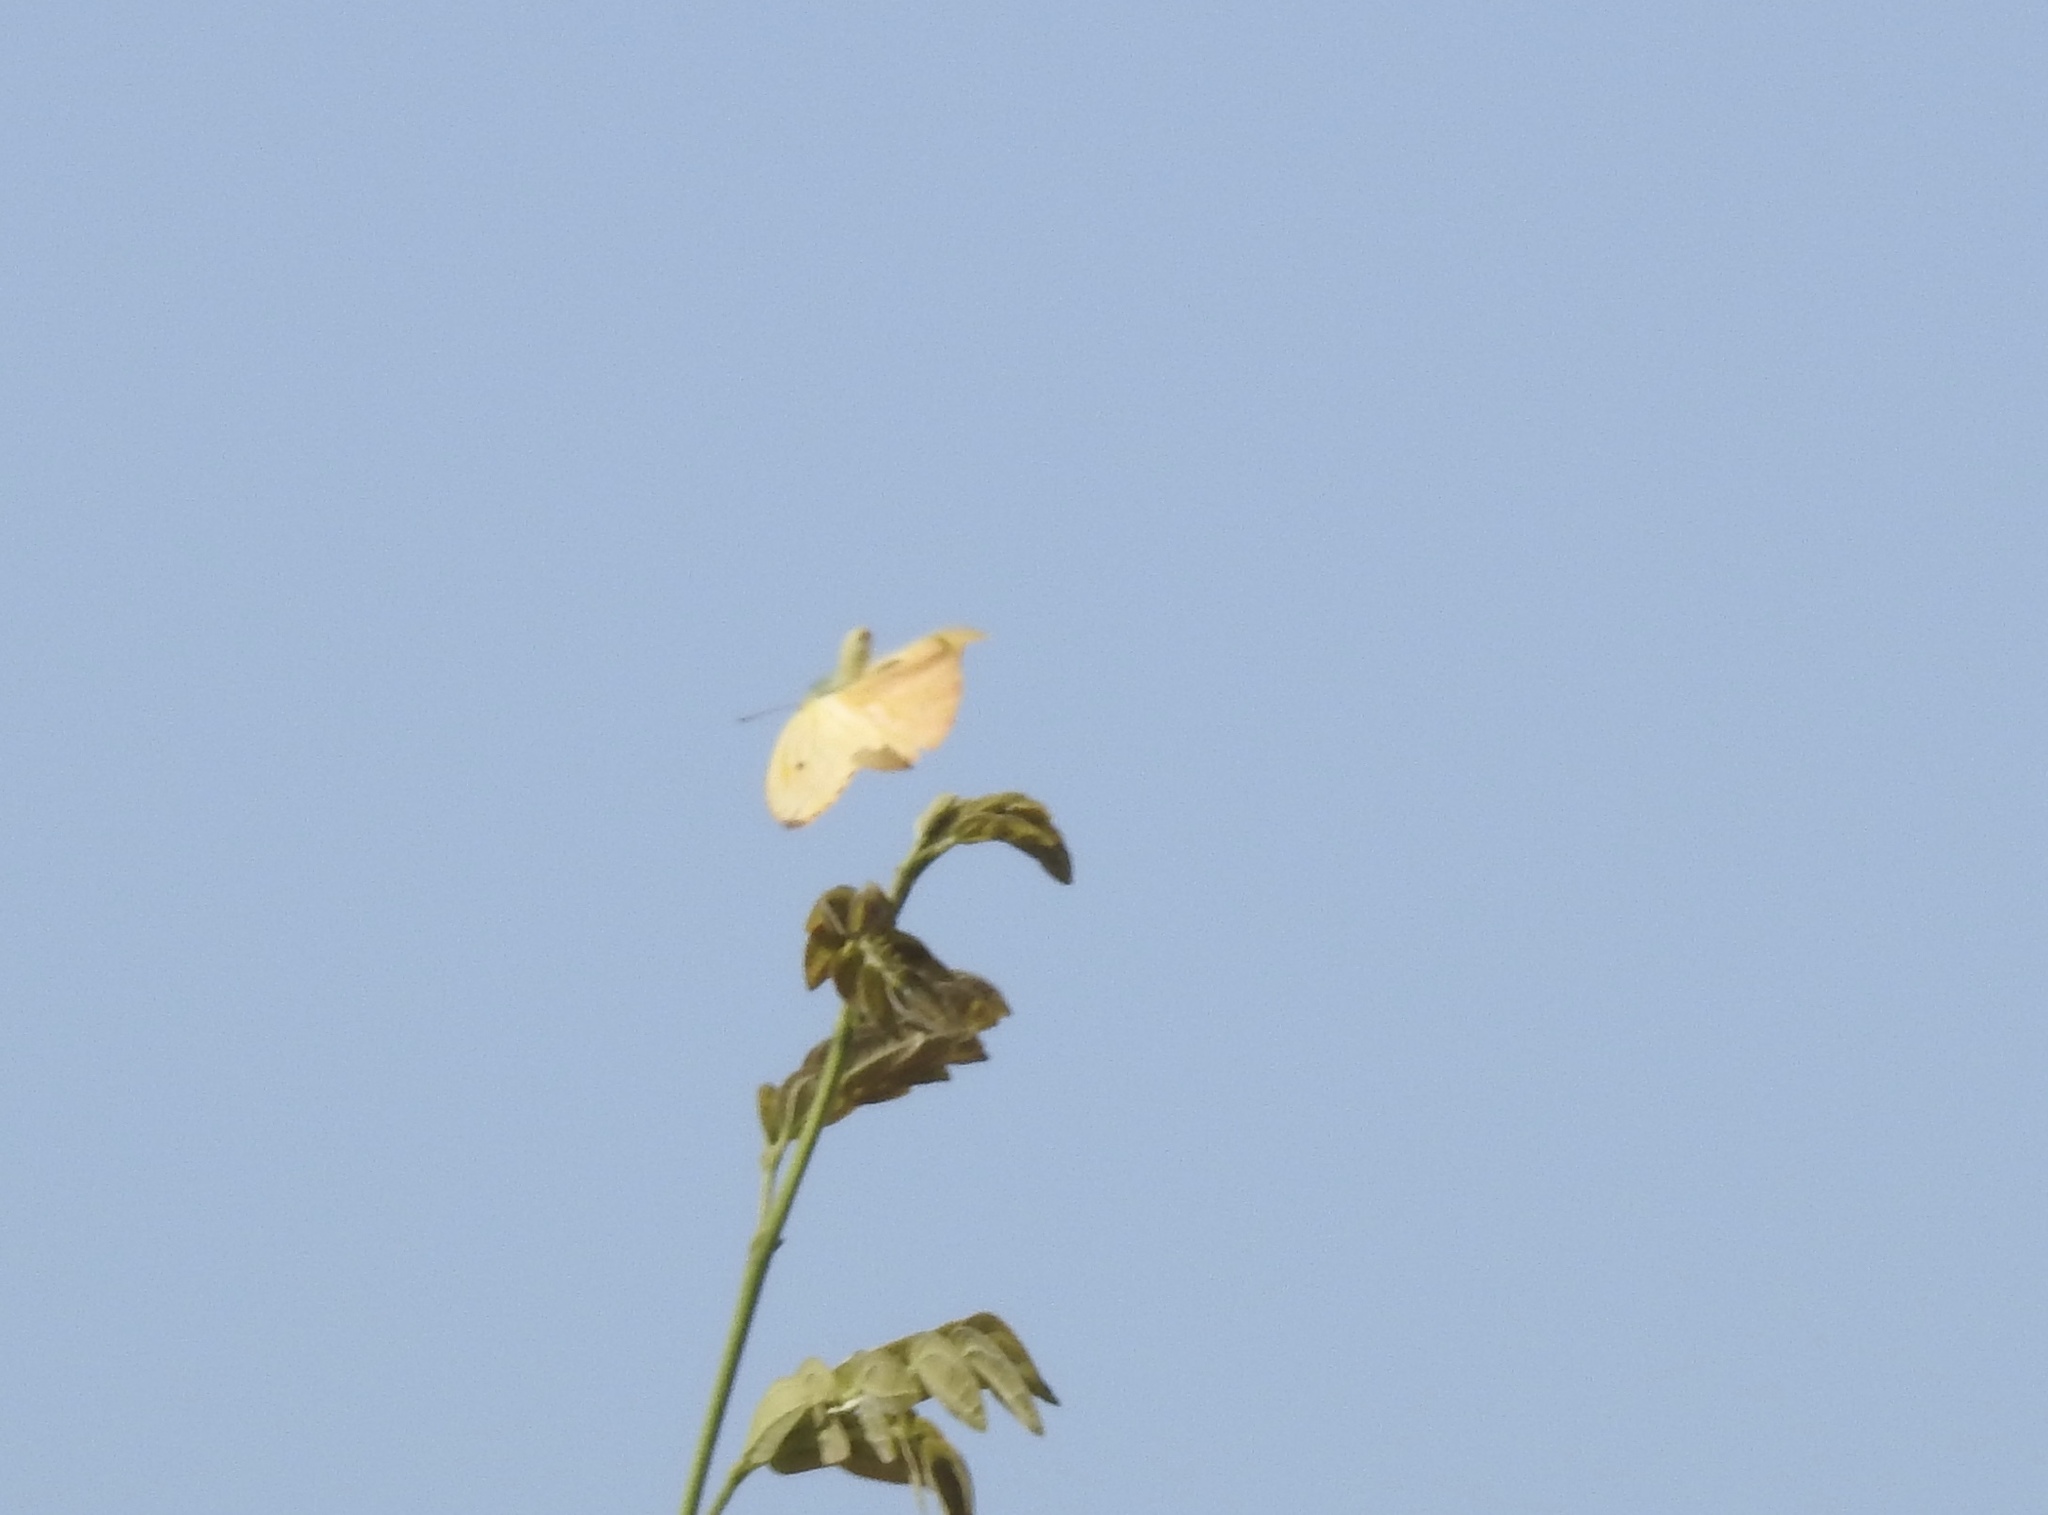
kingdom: Animalia
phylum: Arthropoda
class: Insecta
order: Lepidoptera
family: Pieridae
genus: Phoebis
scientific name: Phoebis agarithe
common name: Large orange sulphur
